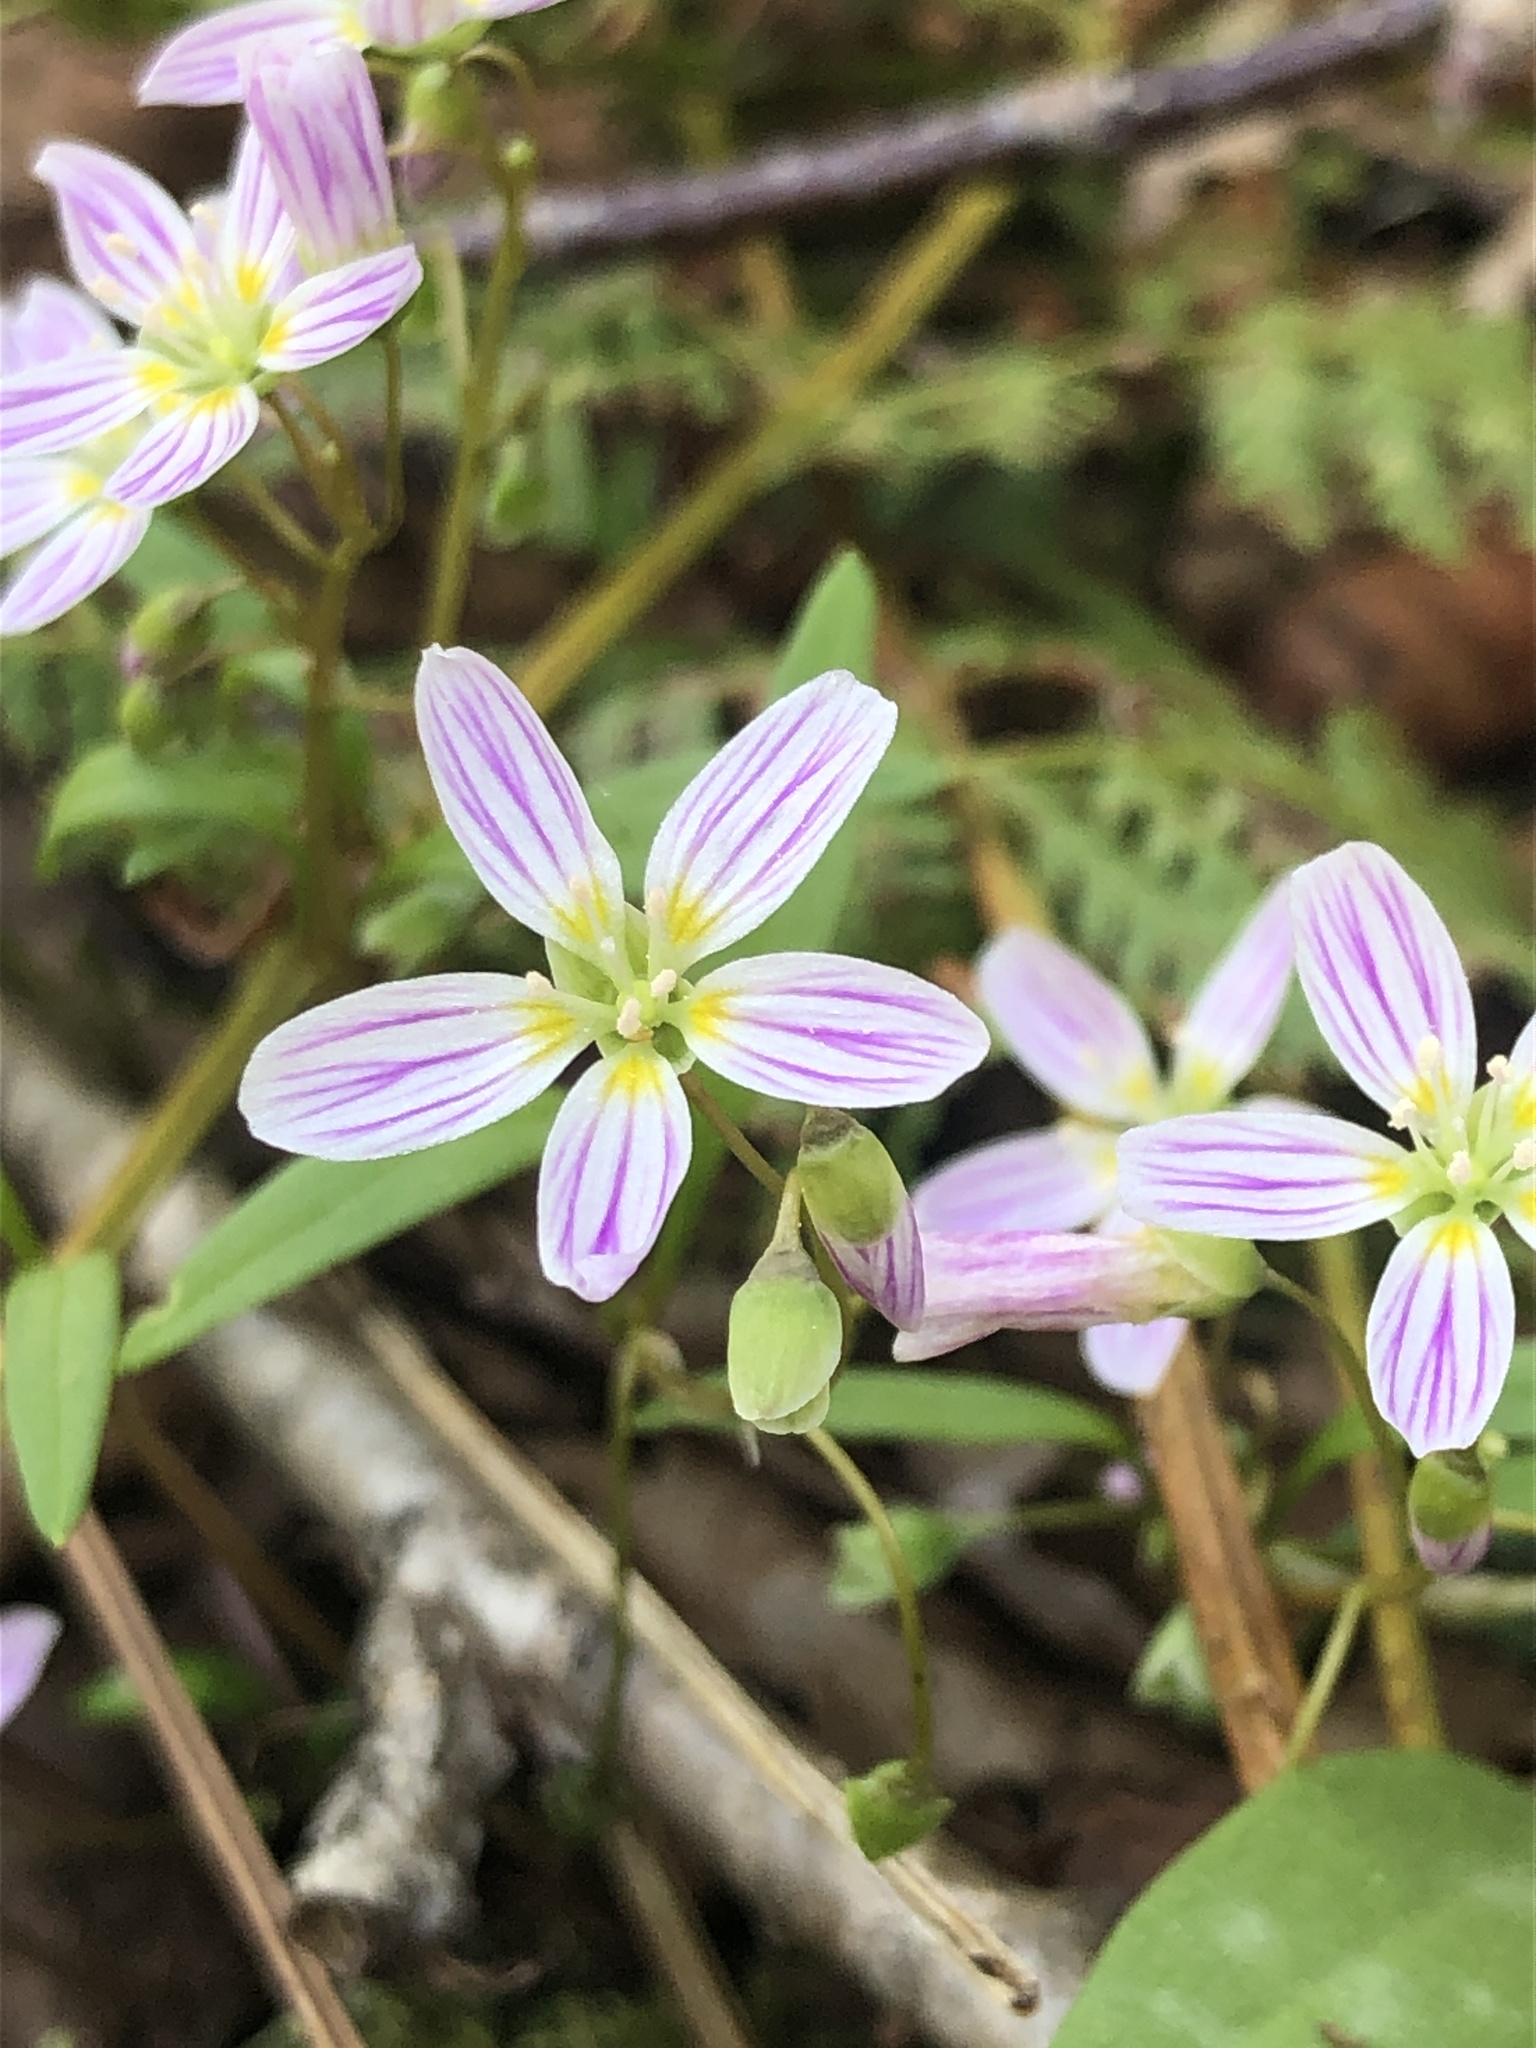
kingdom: Plantae
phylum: Tracheophyta
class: Magnoliopsida
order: Caryophyllales
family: Montiaceae
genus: Claytonia
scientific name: Claytonia caroliniana
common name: Carolina spring beauty
